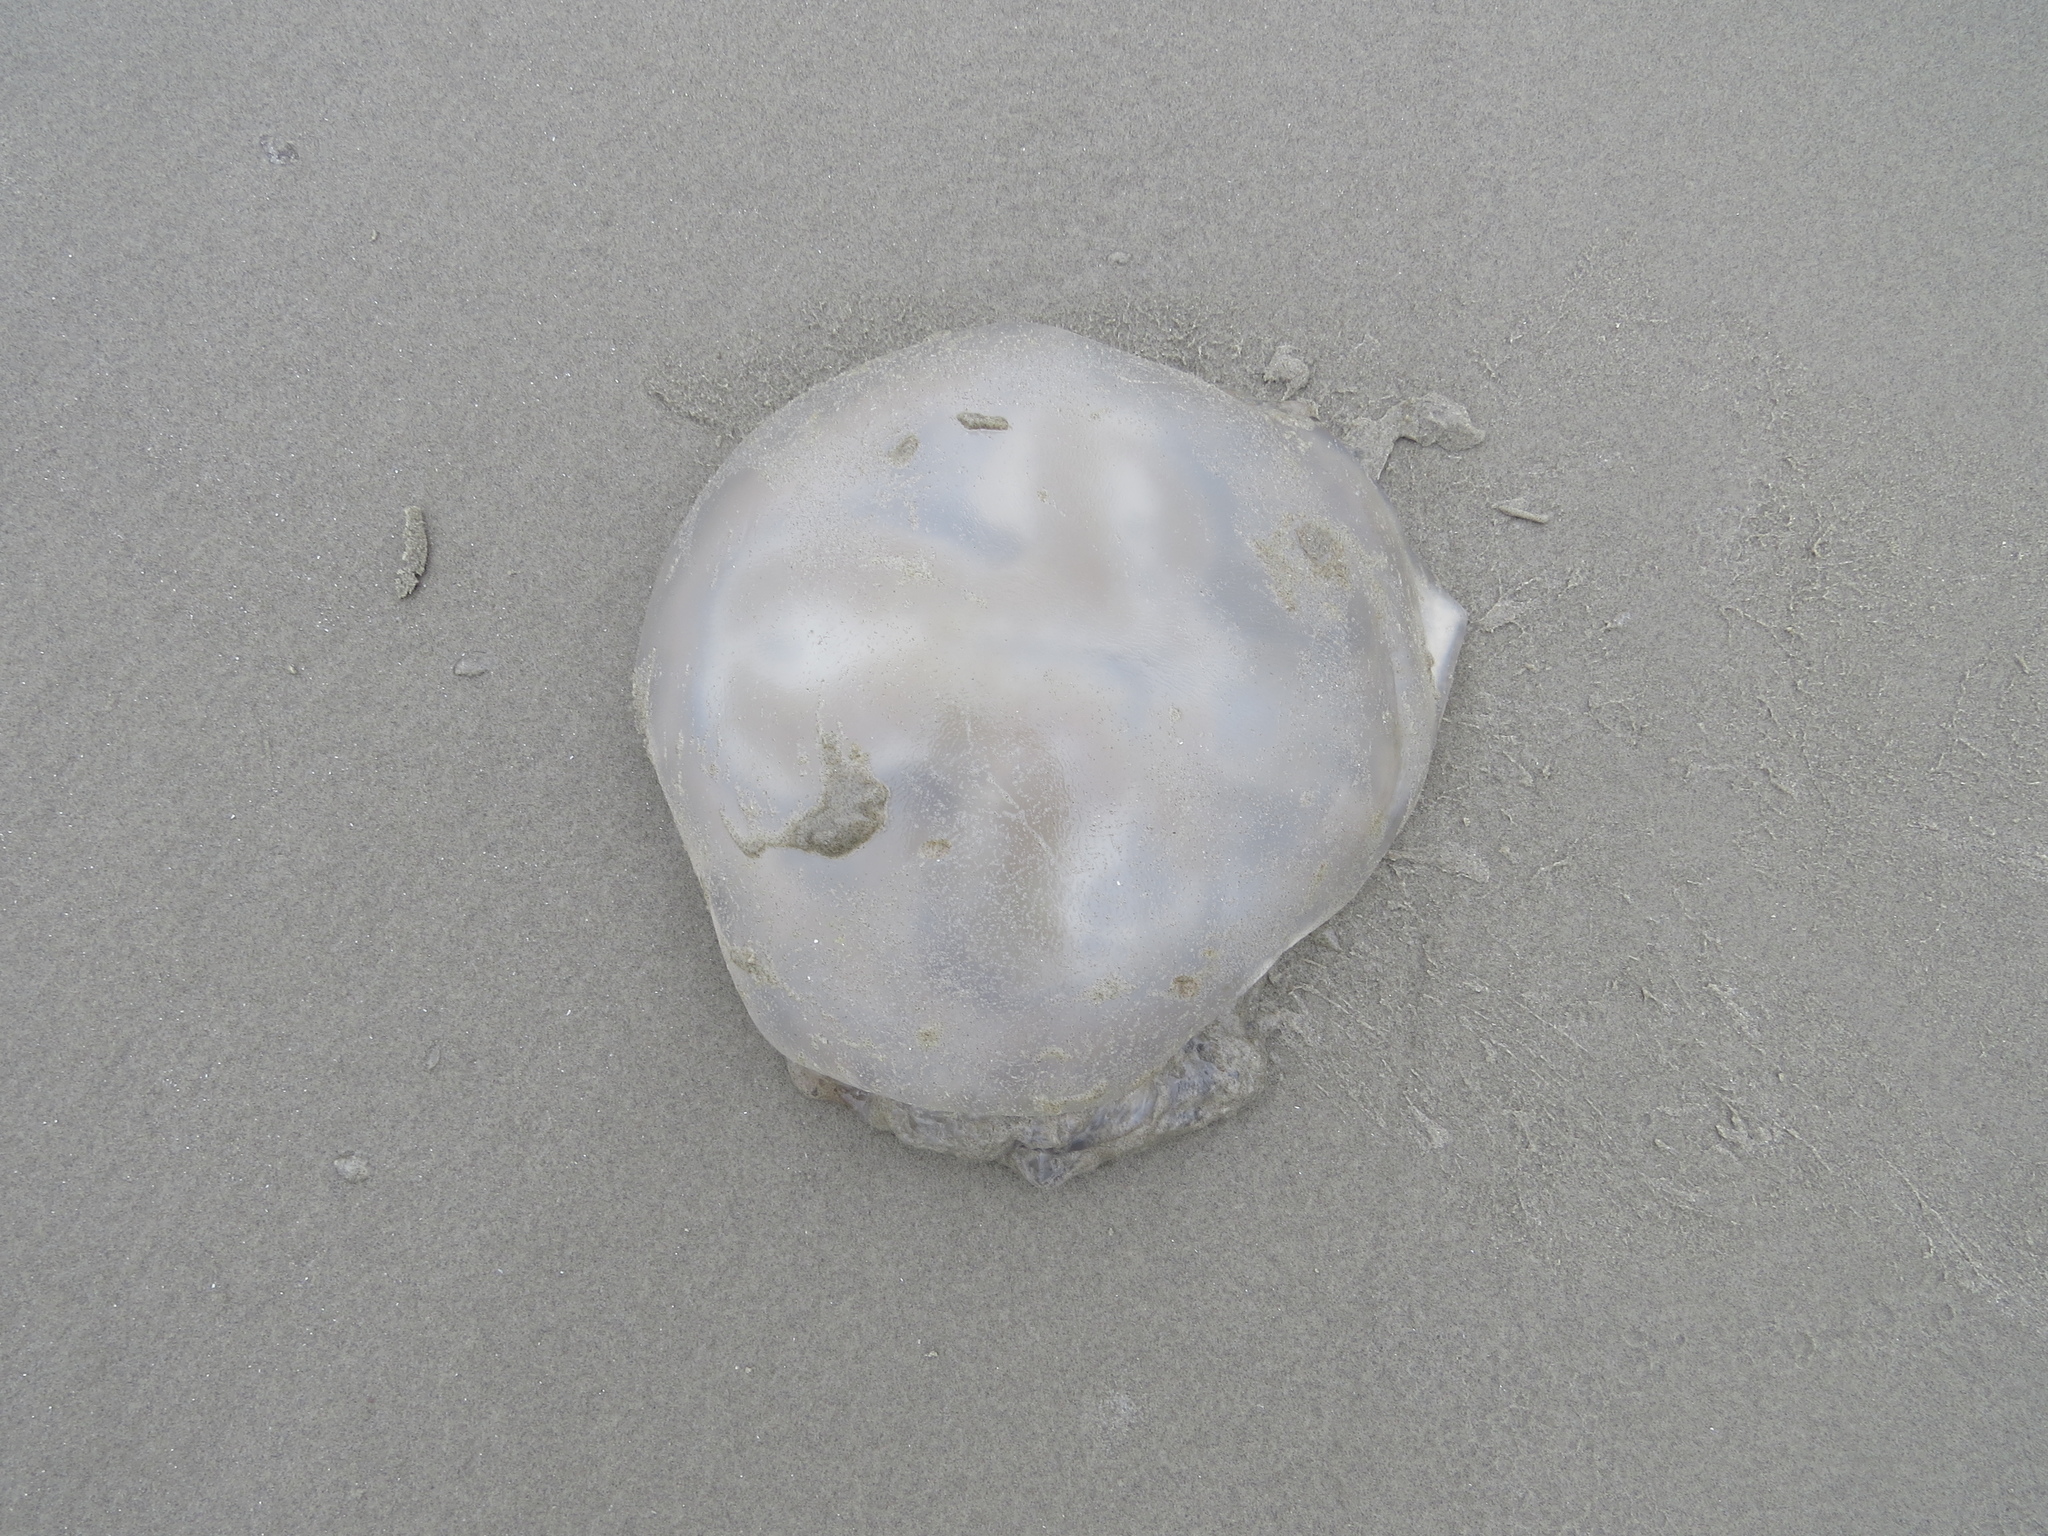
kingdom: Animalia
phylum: Cnidaria
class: Scyphozoa
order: Rhizostomeae
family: Lychnorhizidae
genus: Lychnorhiza
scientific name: Lychnorhiza lucerna
